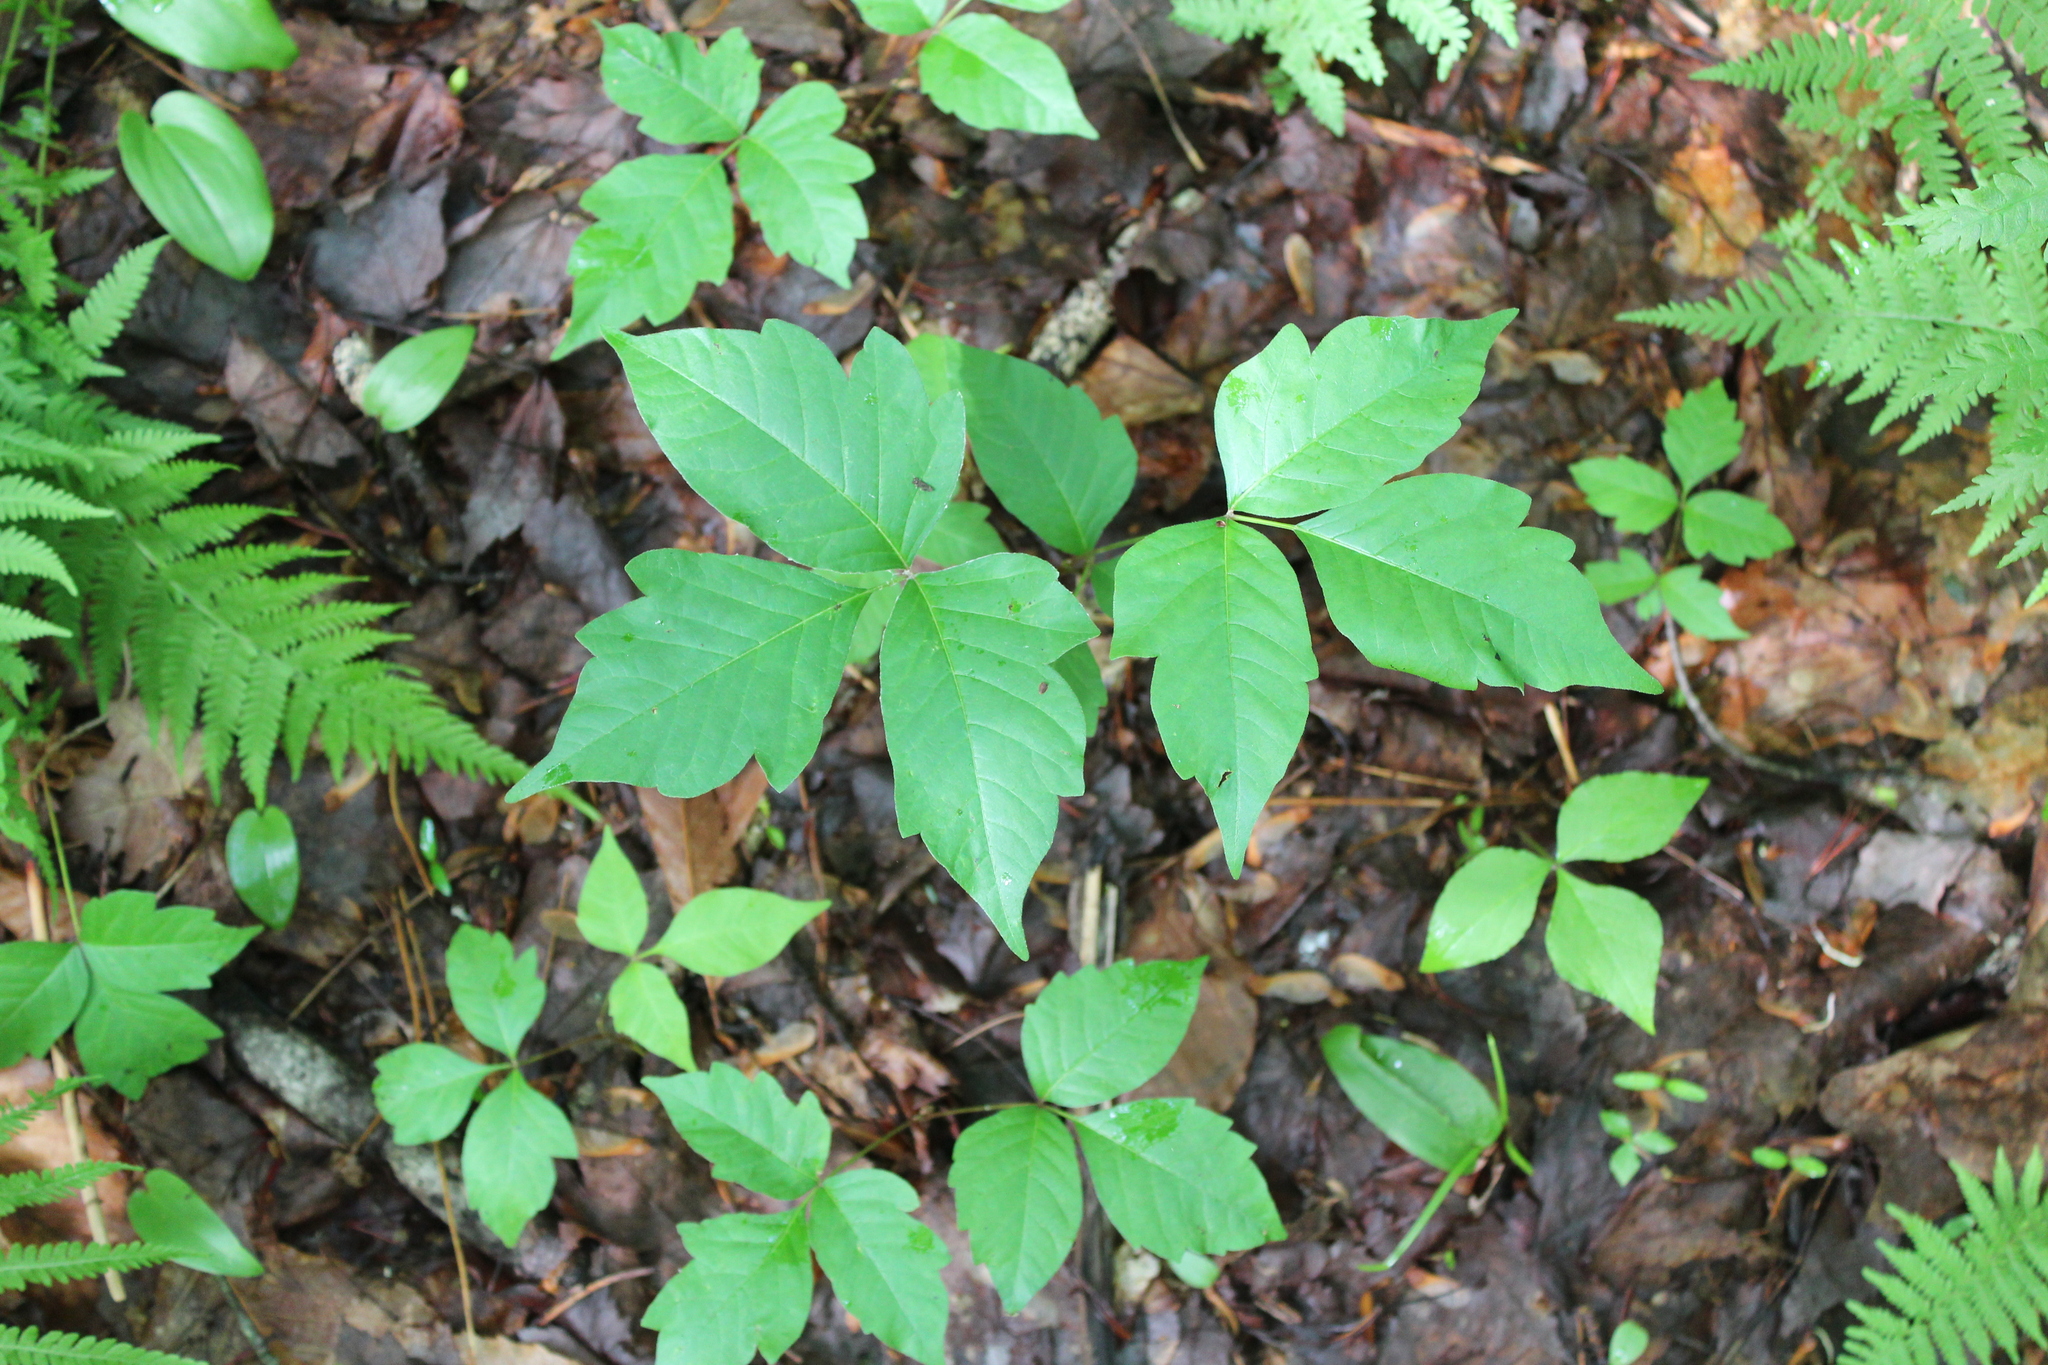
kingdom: Plantae
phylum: Tracheophyta
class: Magnoliopsida
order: Sapindales
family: Anacardiaceae
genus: Toxicodendron
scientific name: Toxicodendron radicans
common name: Poison ivy
